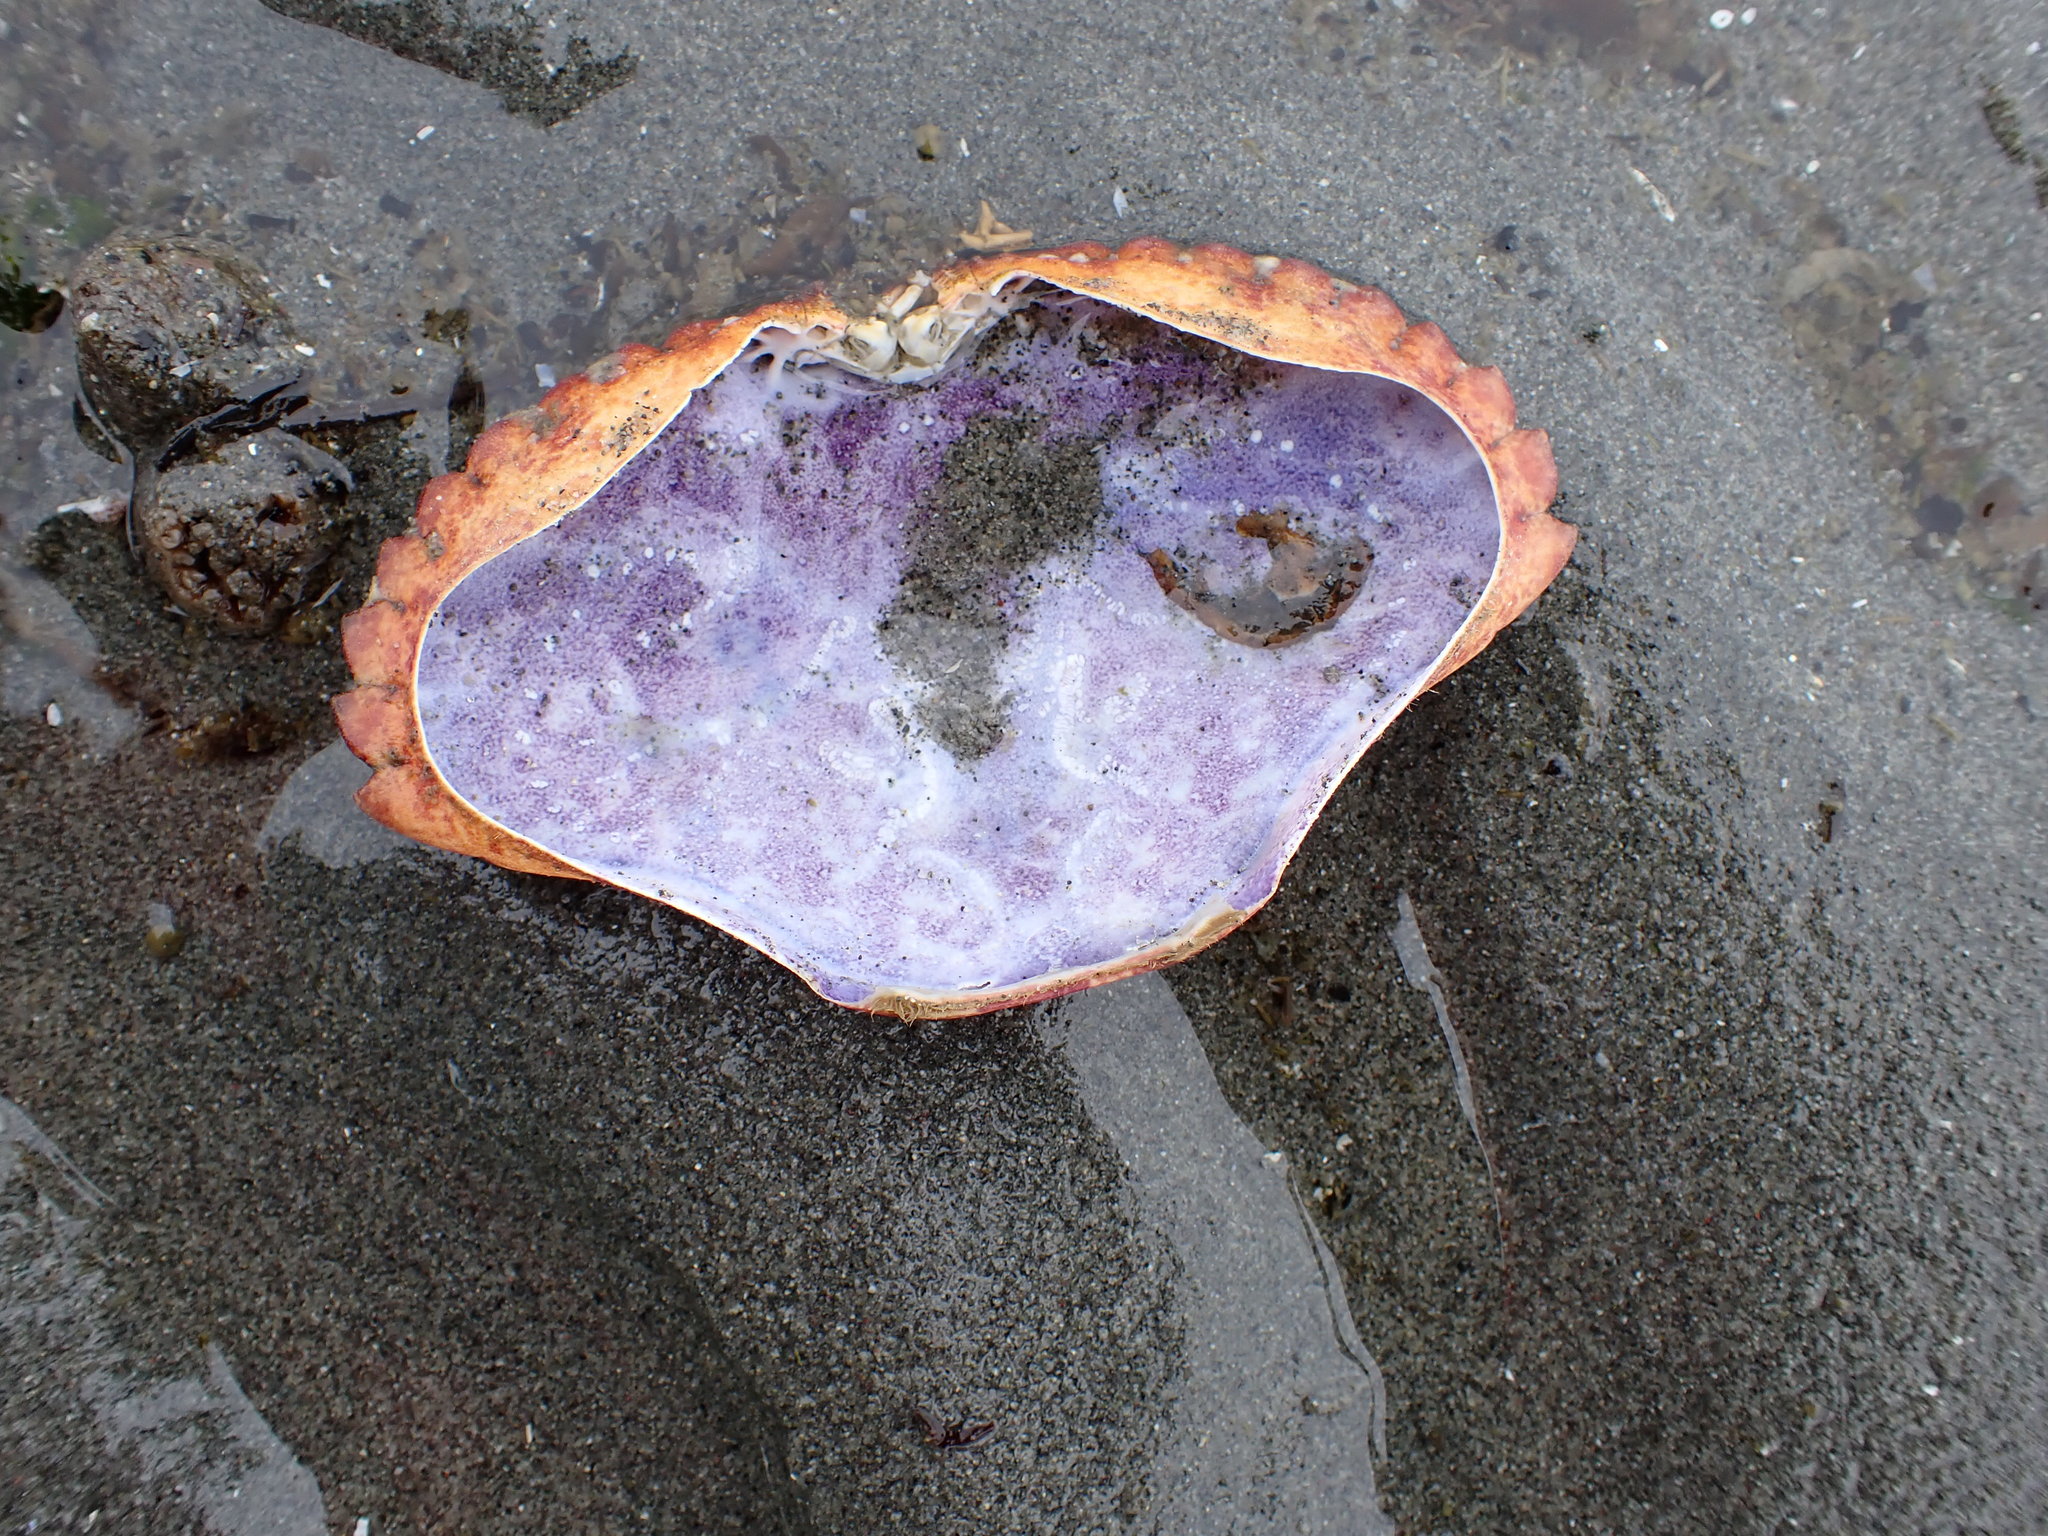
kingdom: Animalia
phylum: Arthropoda
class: Malacostraca
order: Decapoda
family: Cancridae
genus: Cancer
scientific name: Cancer productus
